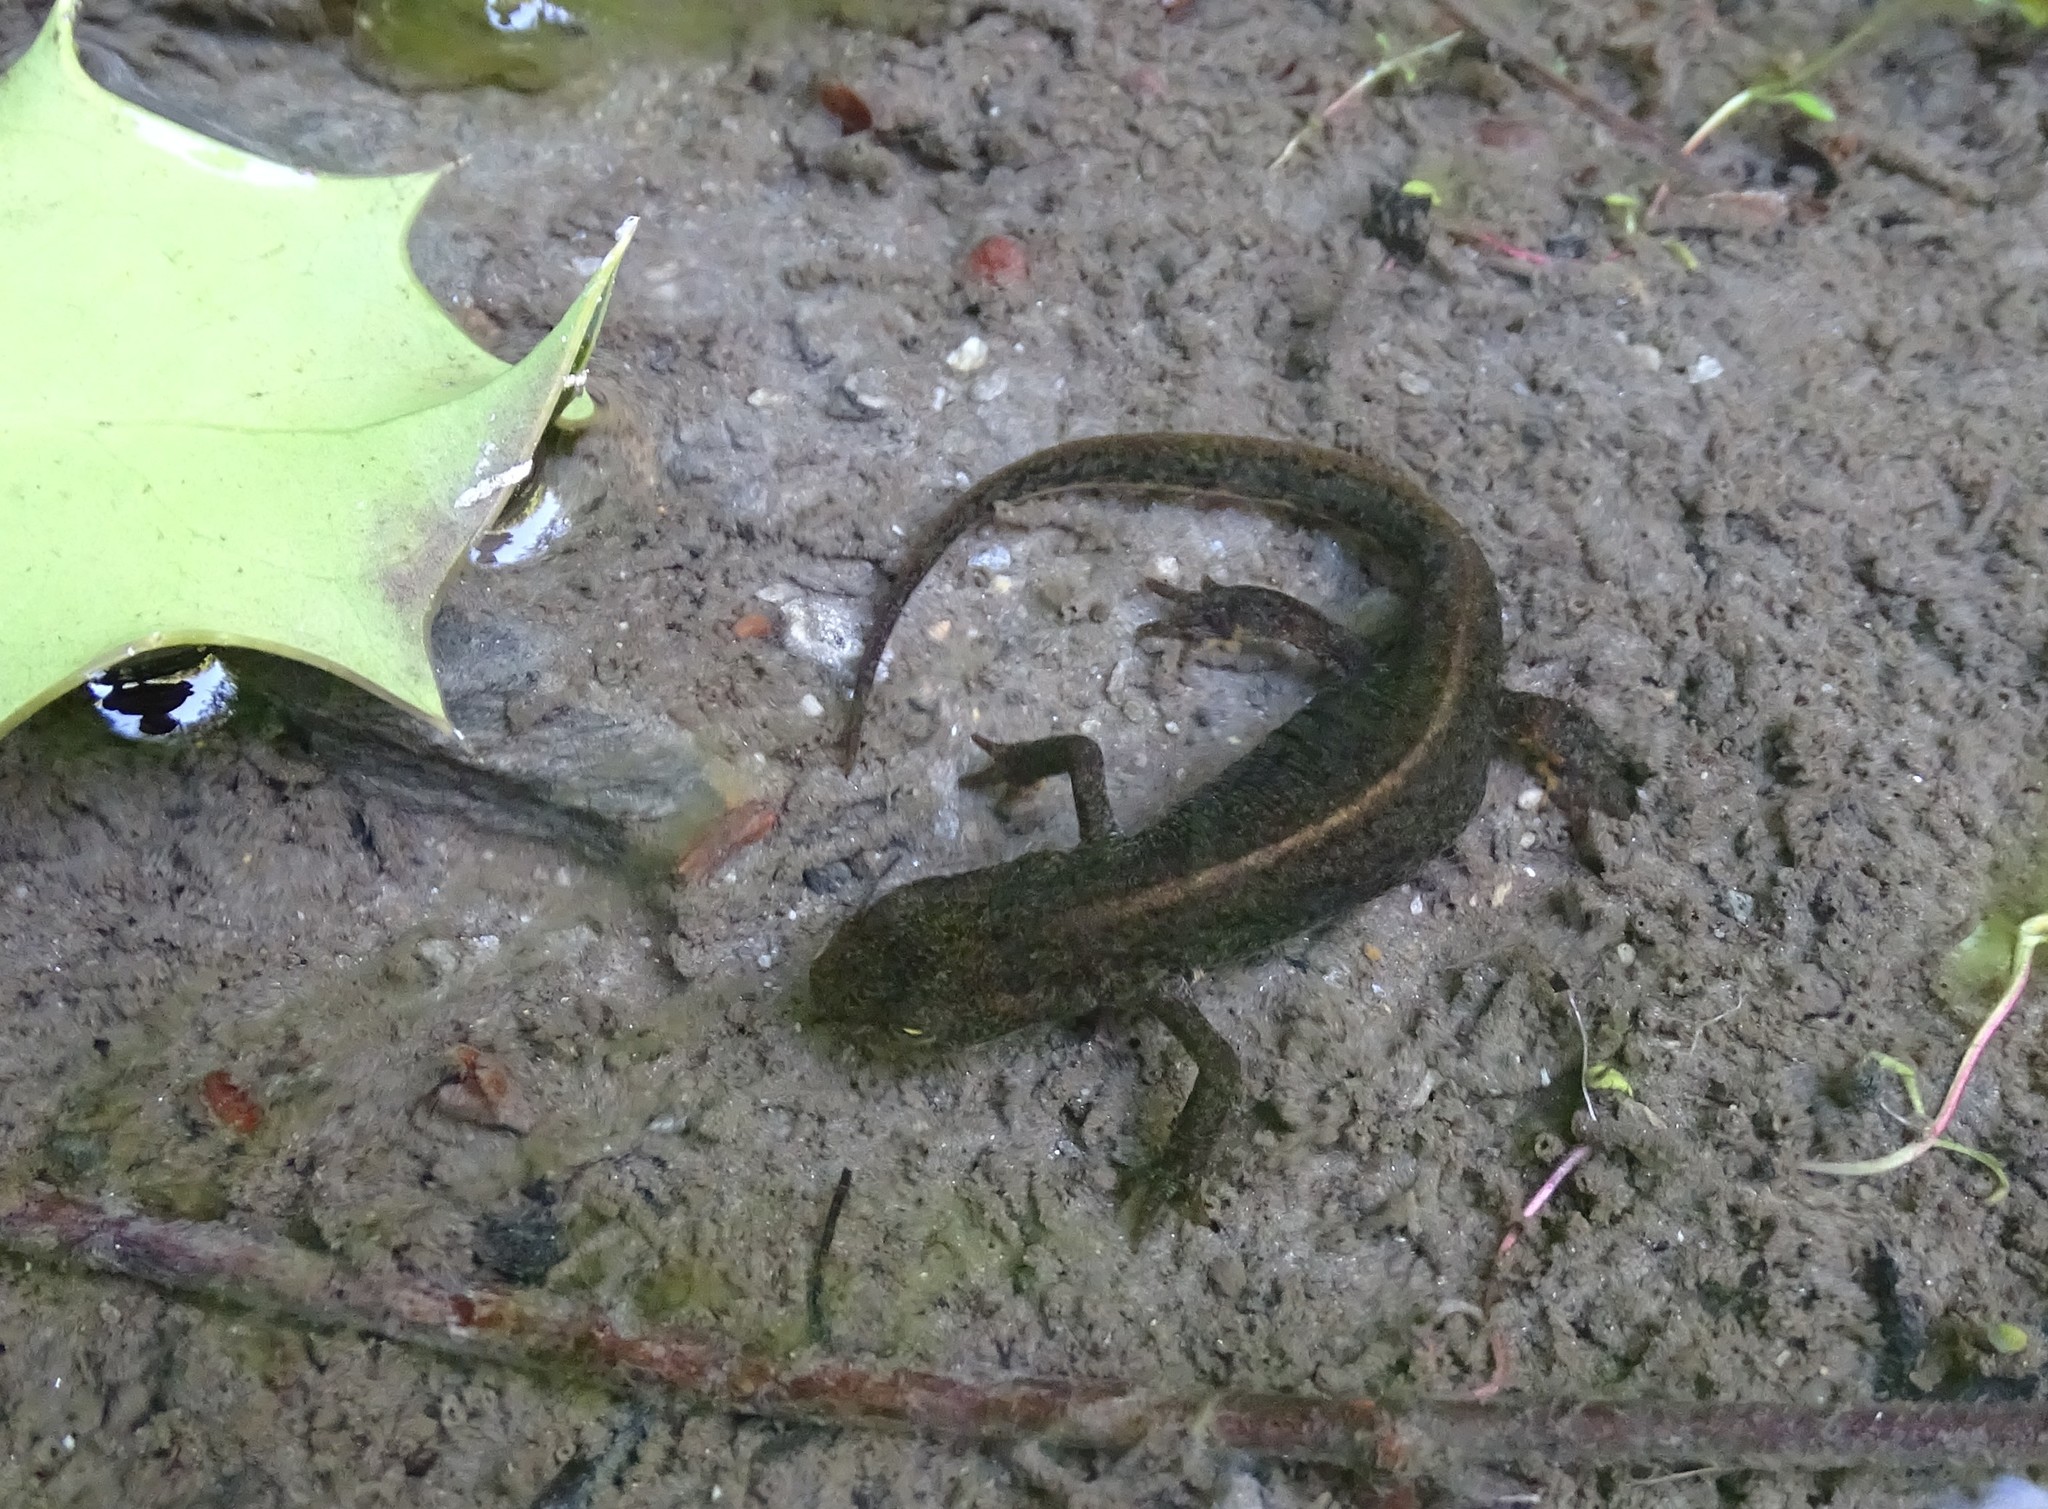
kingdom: Animalia
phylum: Chordata
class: Amphibia
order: Caudata
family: Salamandridae
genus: Lissotriton
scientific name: Lissotriton boscai
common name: Bosca's newt
